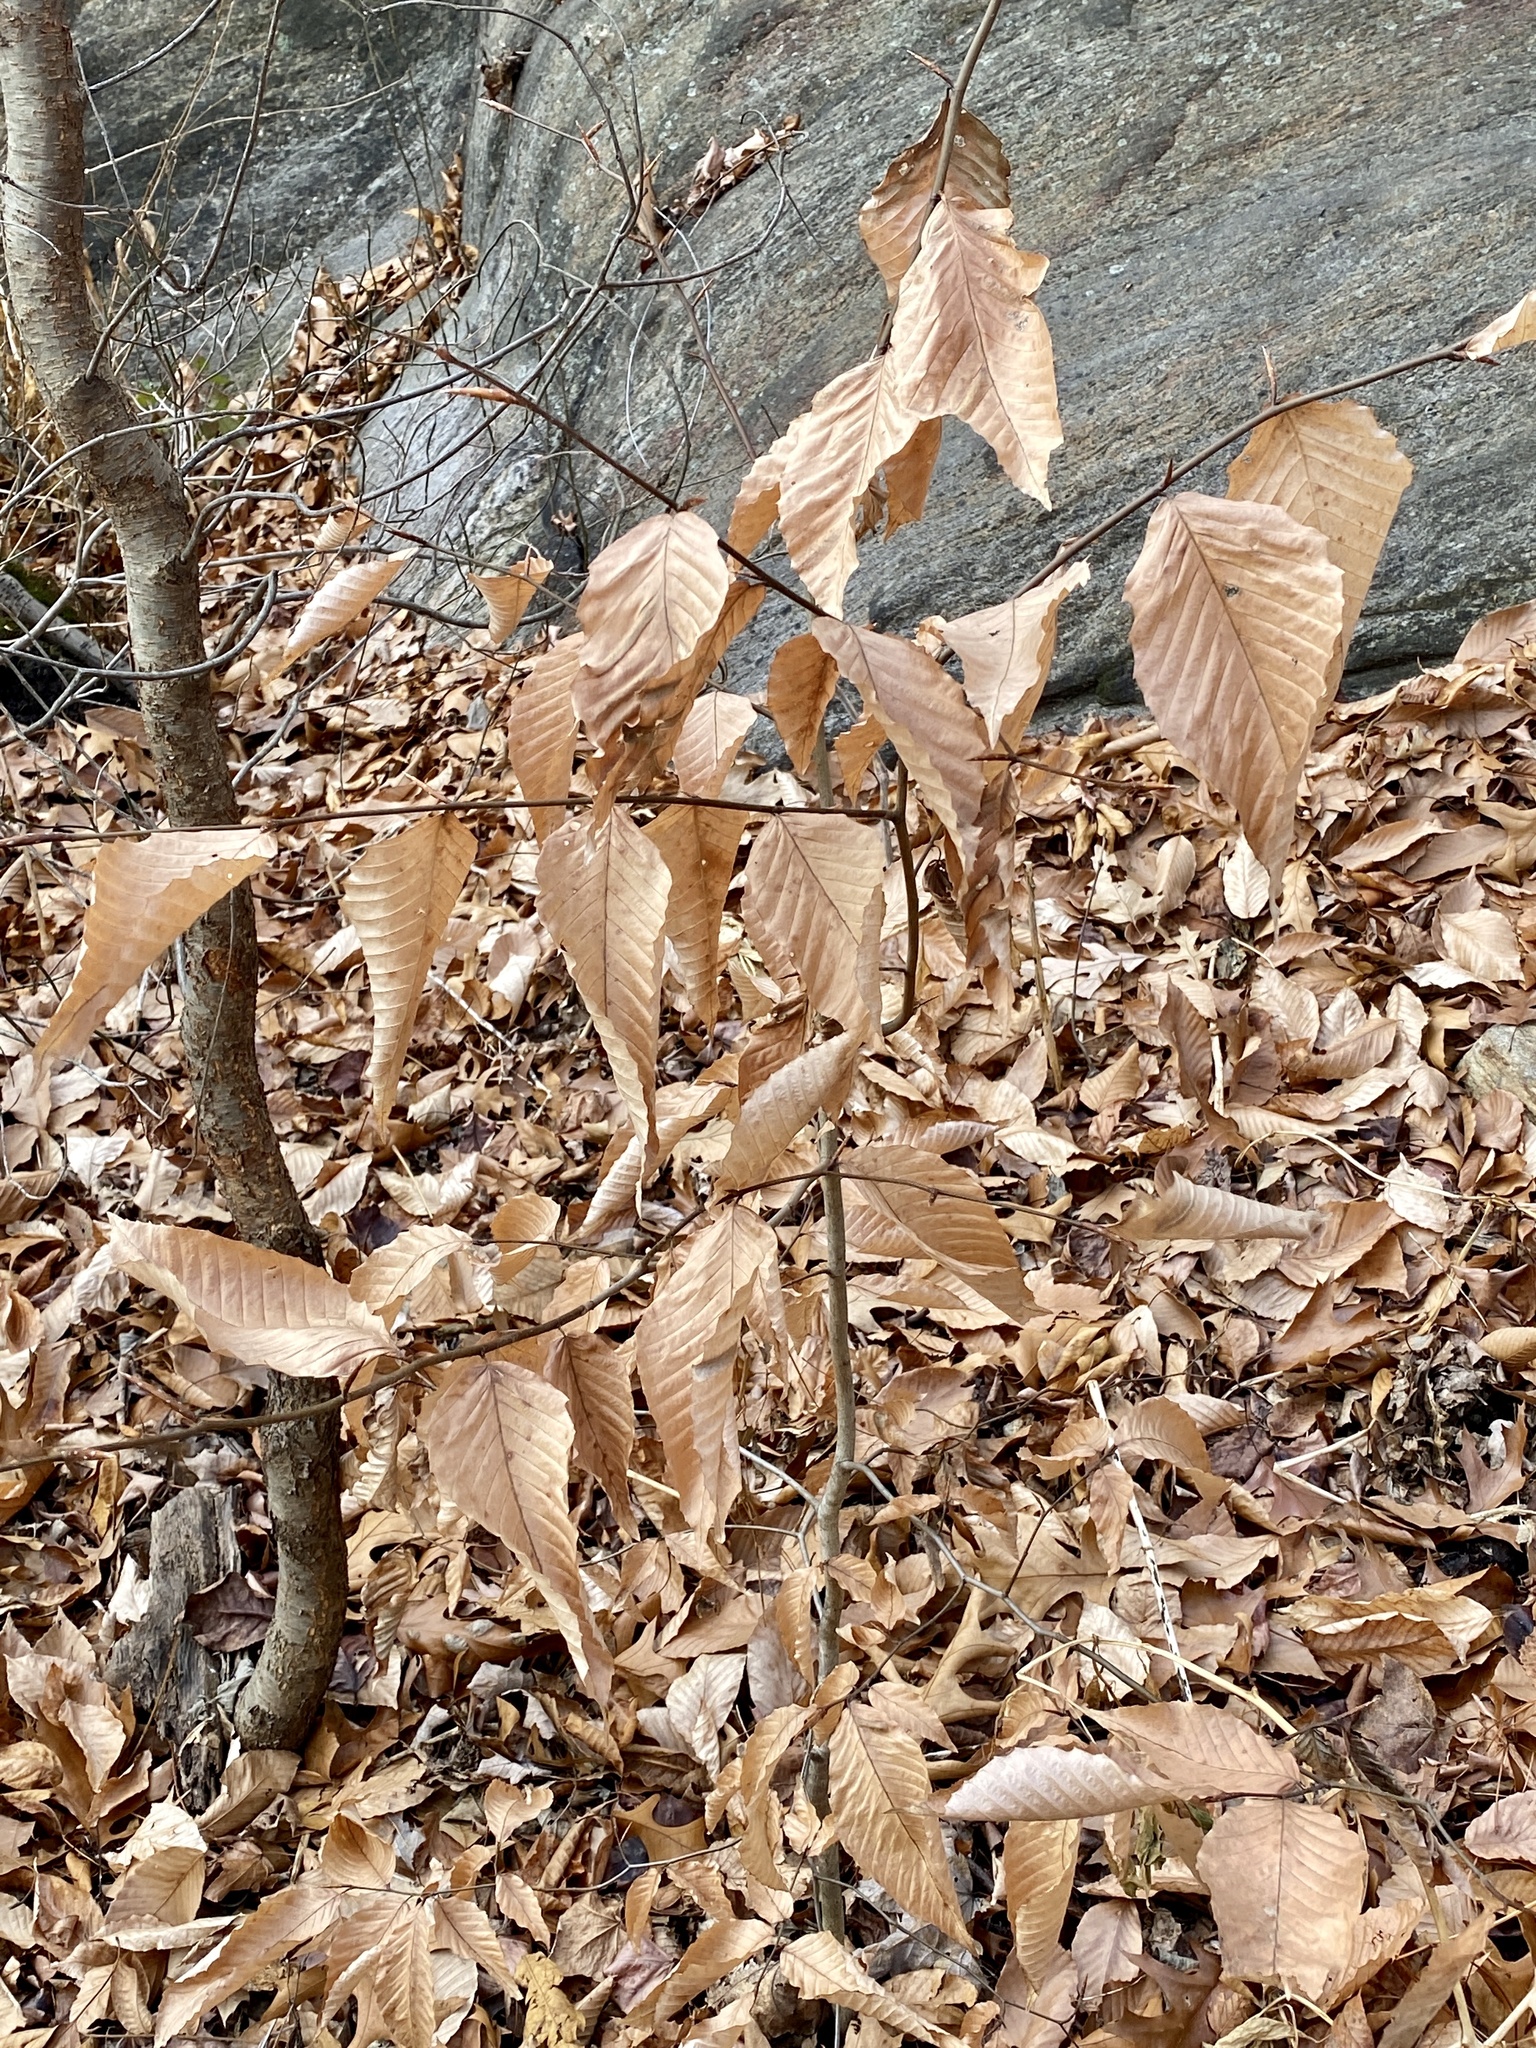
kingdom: Plantae
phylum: Tracheophyta
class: Magnoliopsida
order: Fagales
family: Fagaceae
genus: Fagus
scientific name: Fagus grandifolia
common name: American beech
